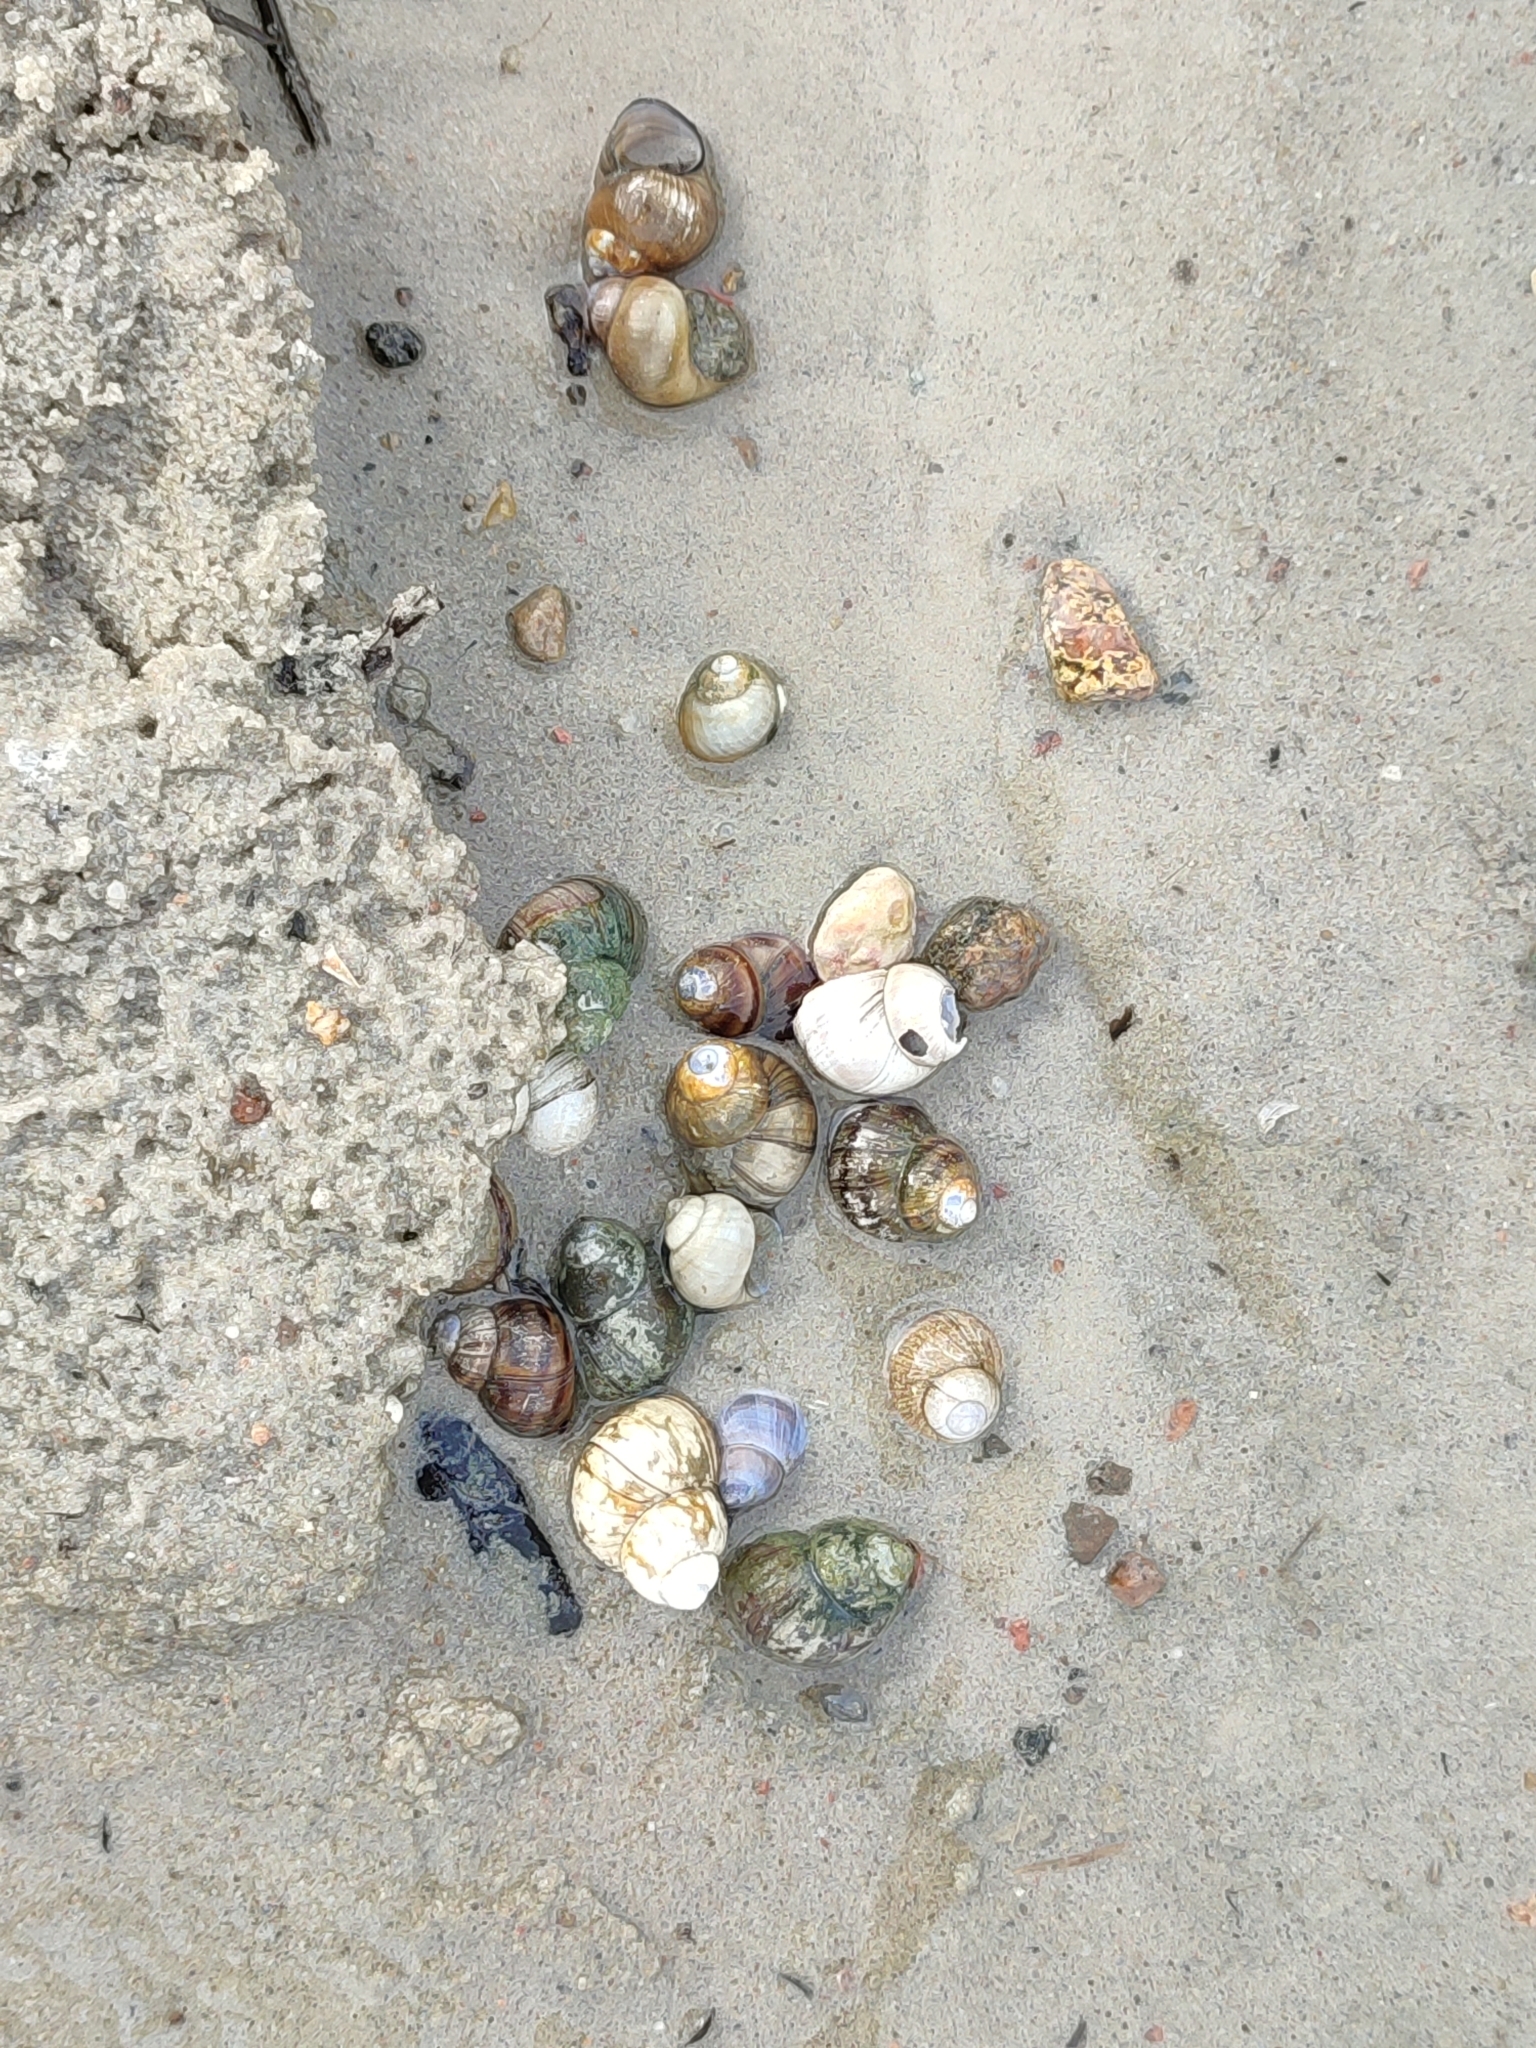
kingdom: Animalia
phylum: Mollusca
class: Gastropoda
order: Architaenioglossa
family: Viviparidae
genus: Viviparus
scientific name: Viviparus viviparus
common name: River snail
